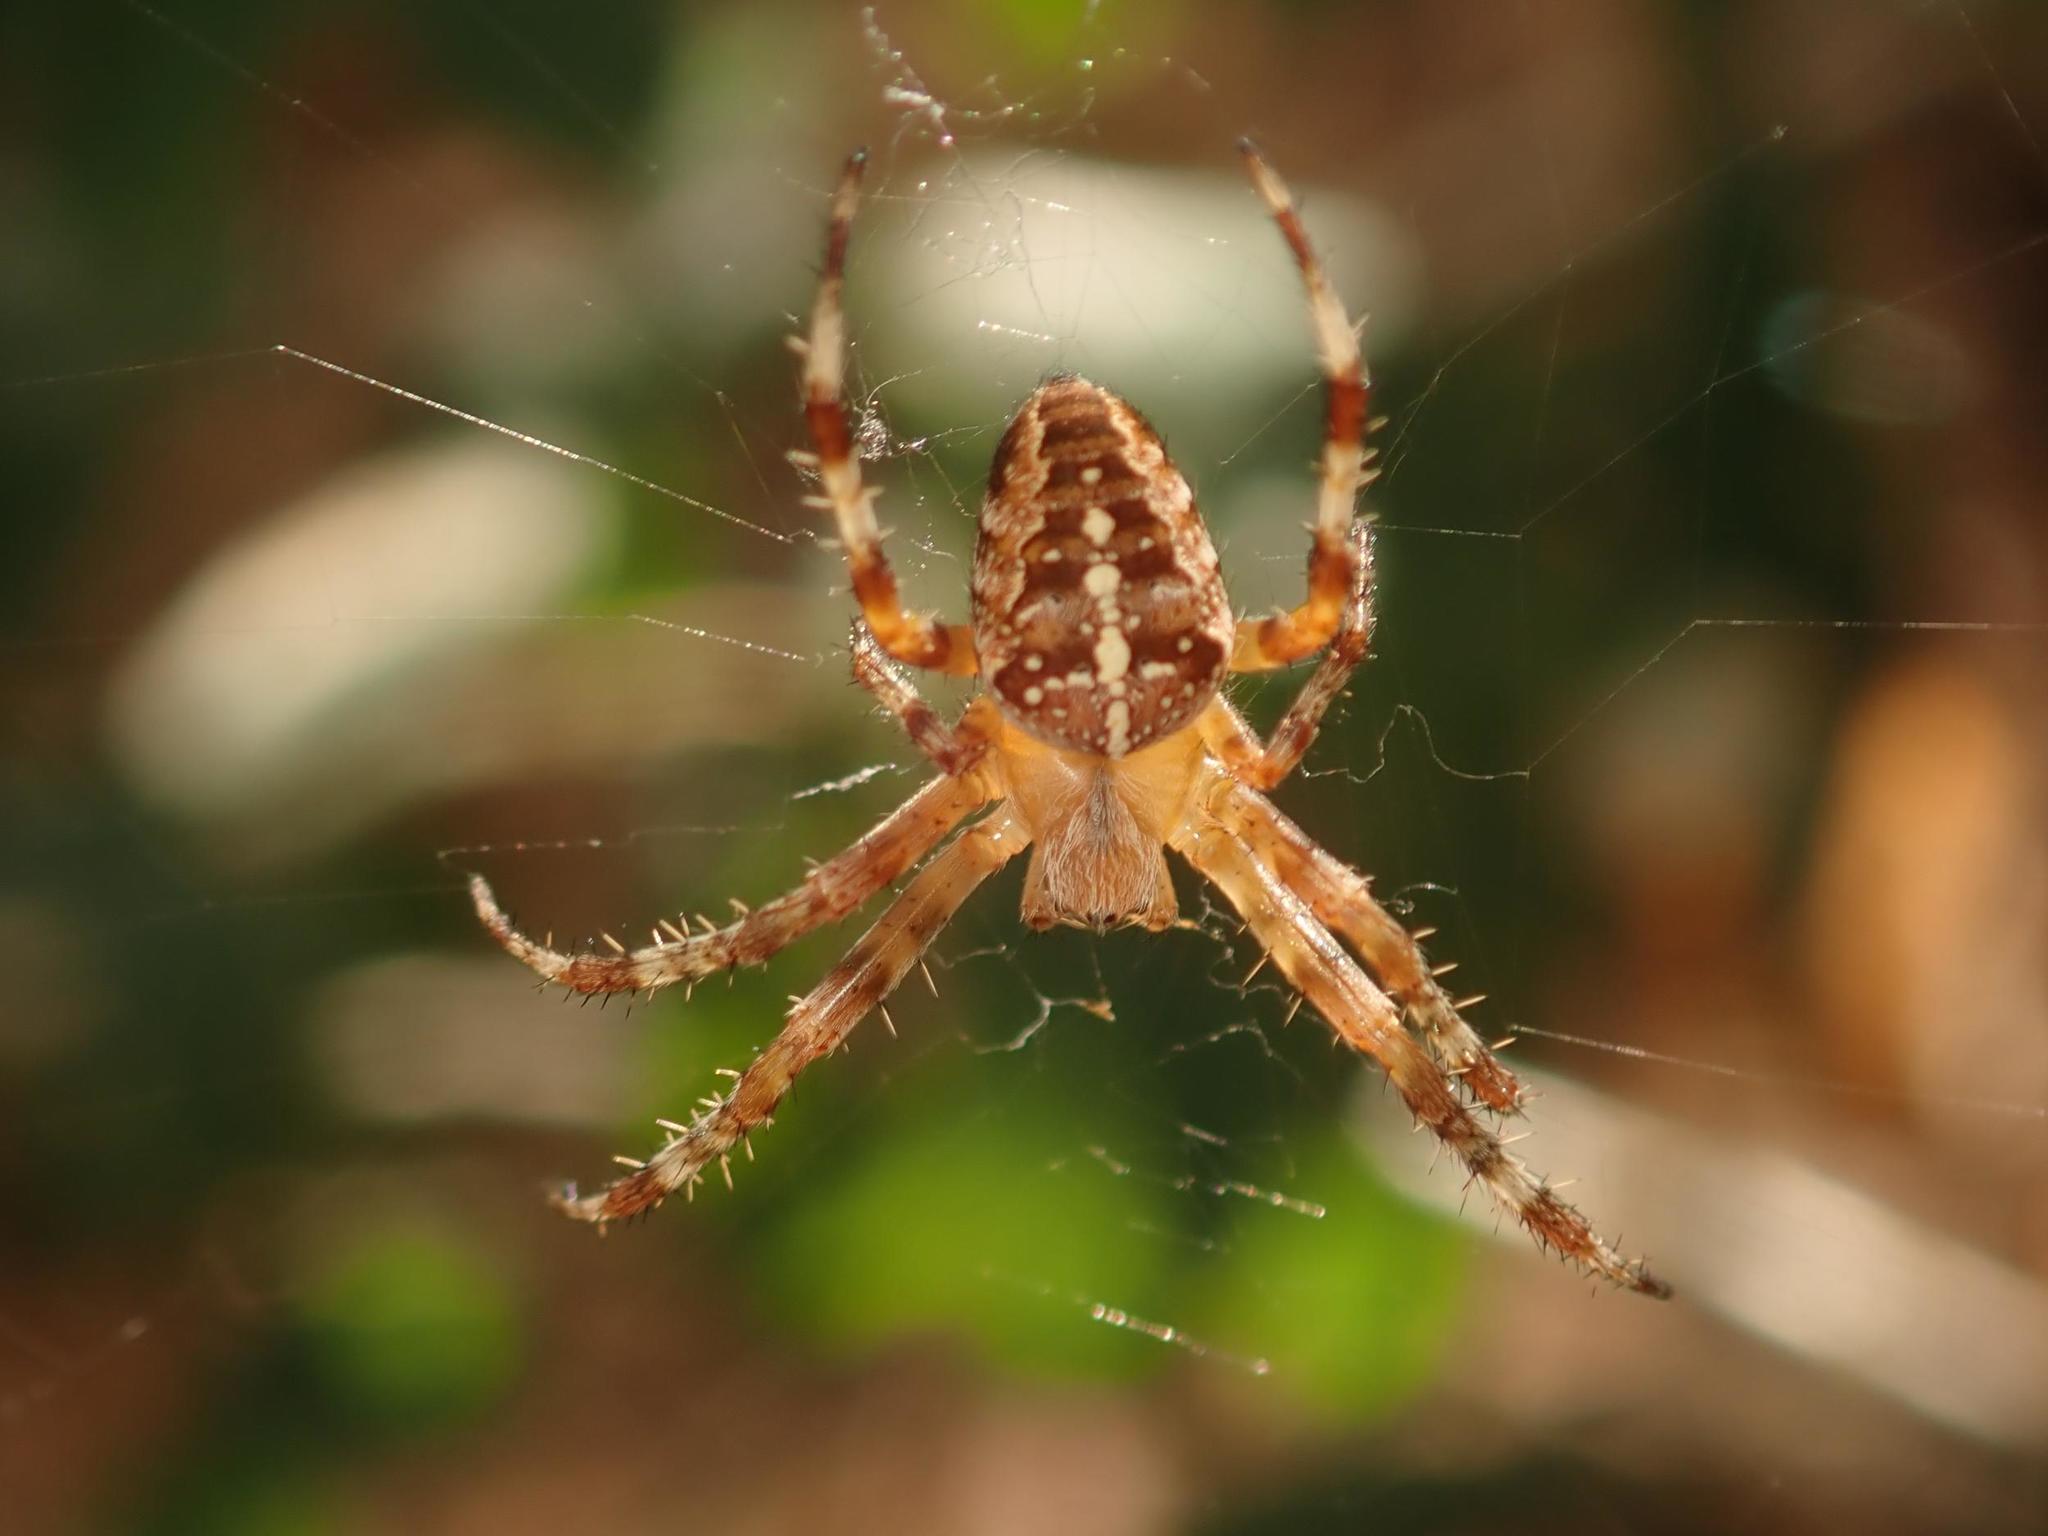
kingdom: Animalia
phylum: Arthropoda
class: Arachnida
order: Araneae
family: Araneidae
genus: Araneus
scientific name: Araneus diadematus
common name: Cross orbweaver
